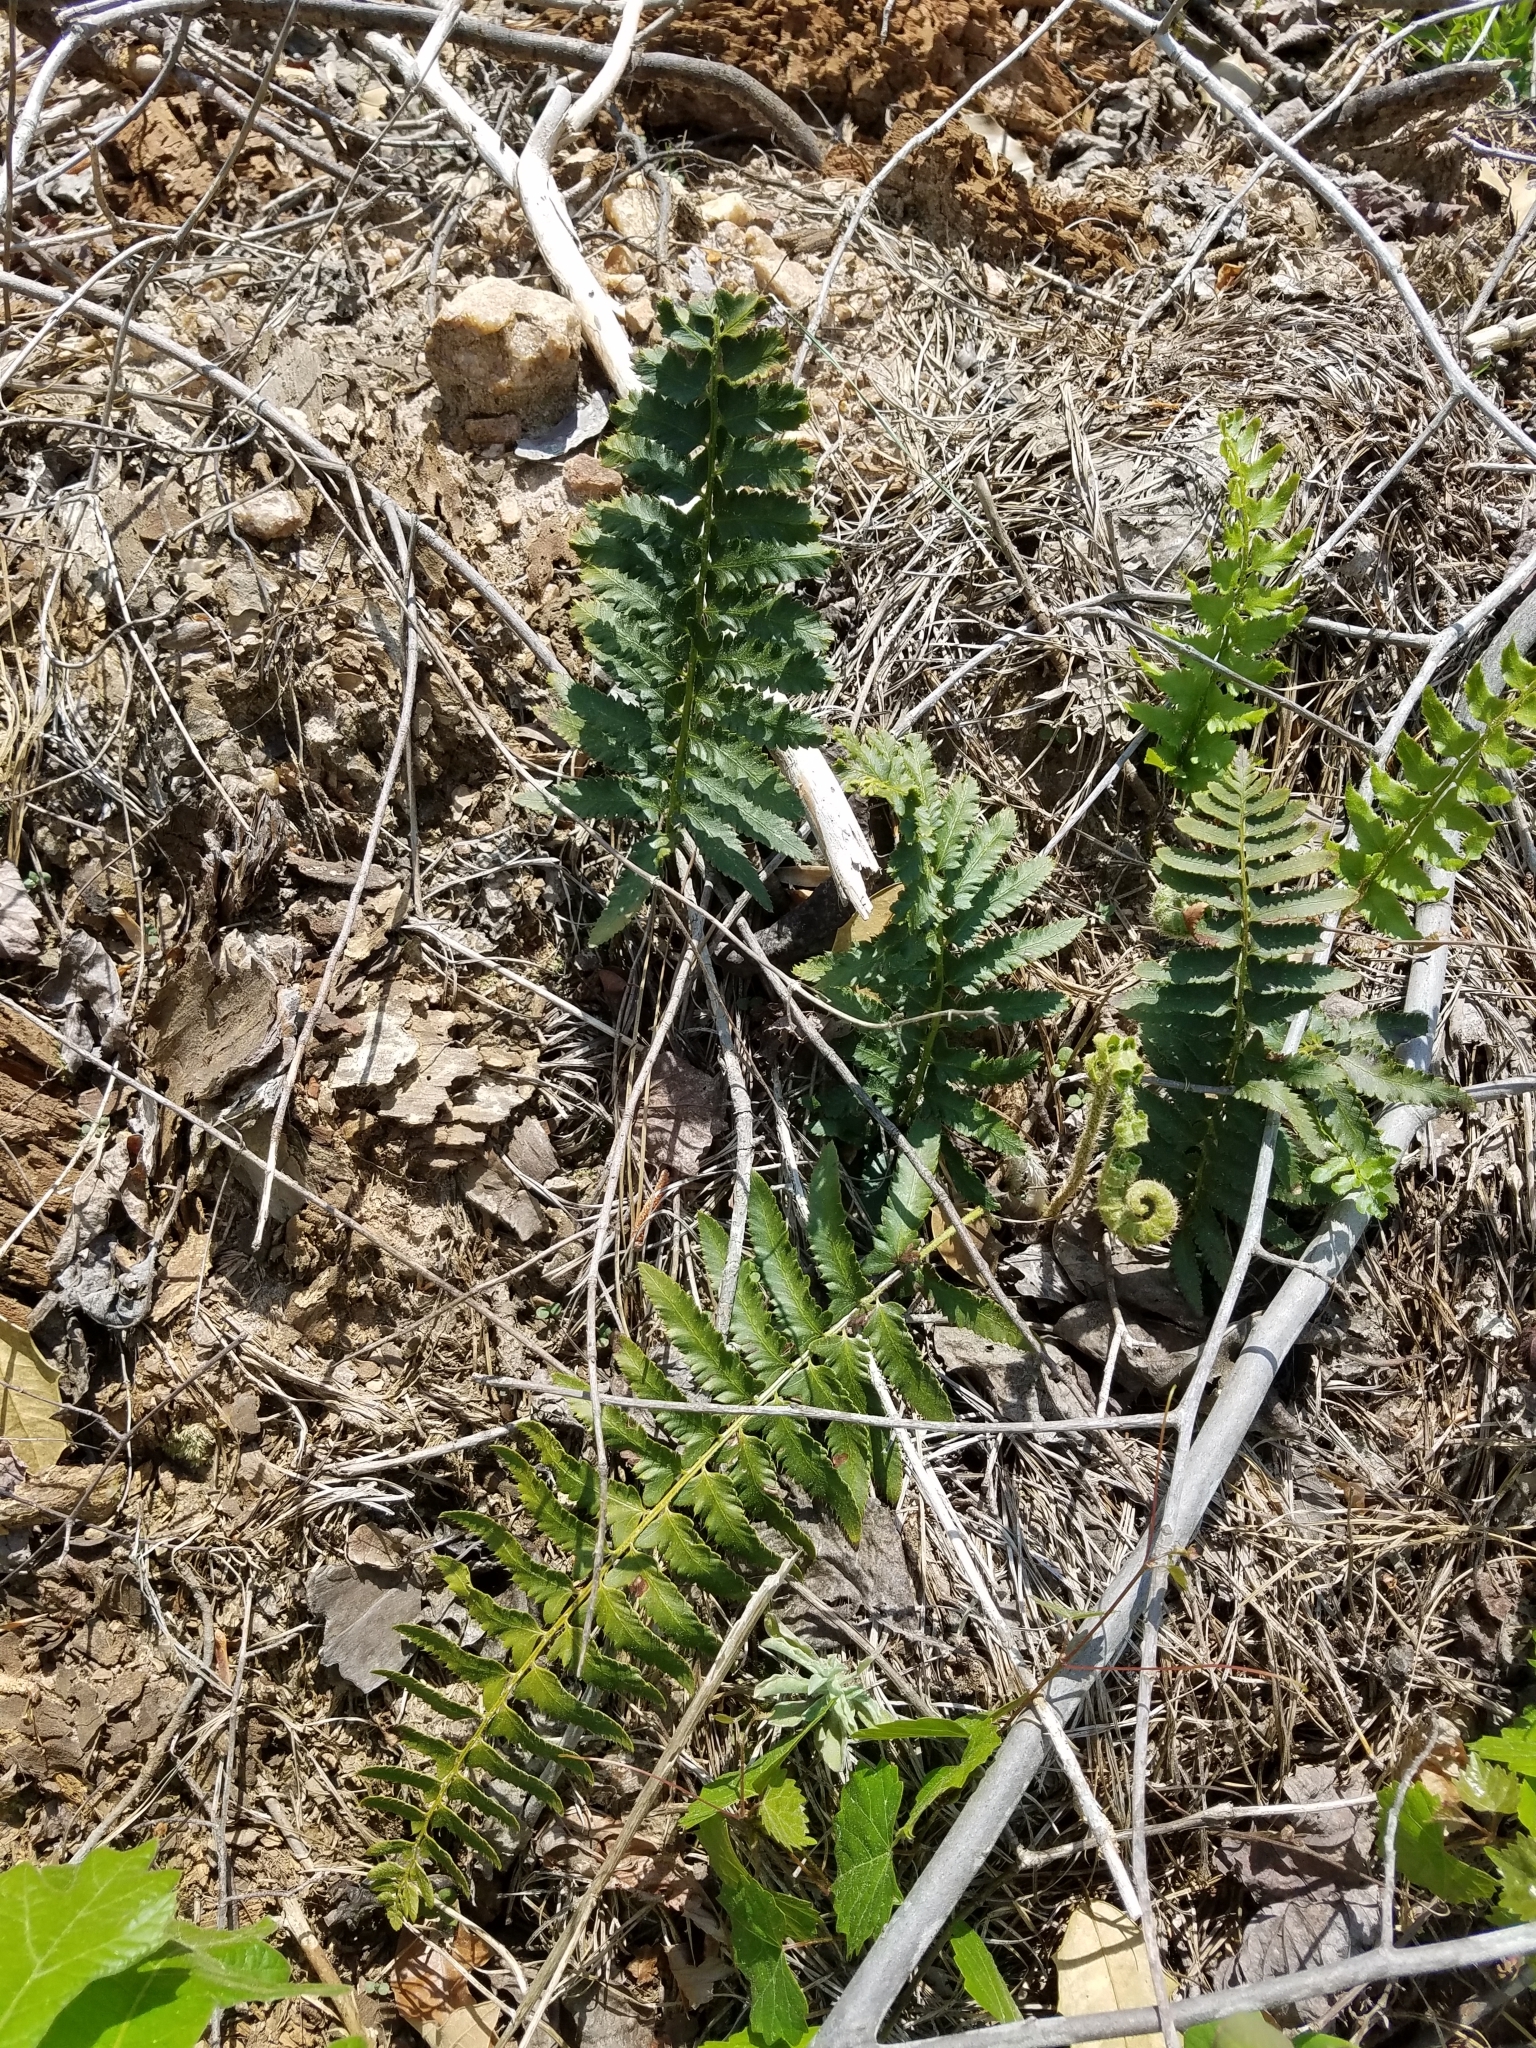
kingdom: Plantae
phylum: Tracheophyta
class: Polypodiopsida
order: Polypodiales
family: Dryopteridaceae
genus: Polystichum
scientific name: Polystichum acrostichoides
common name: Christmas fern
